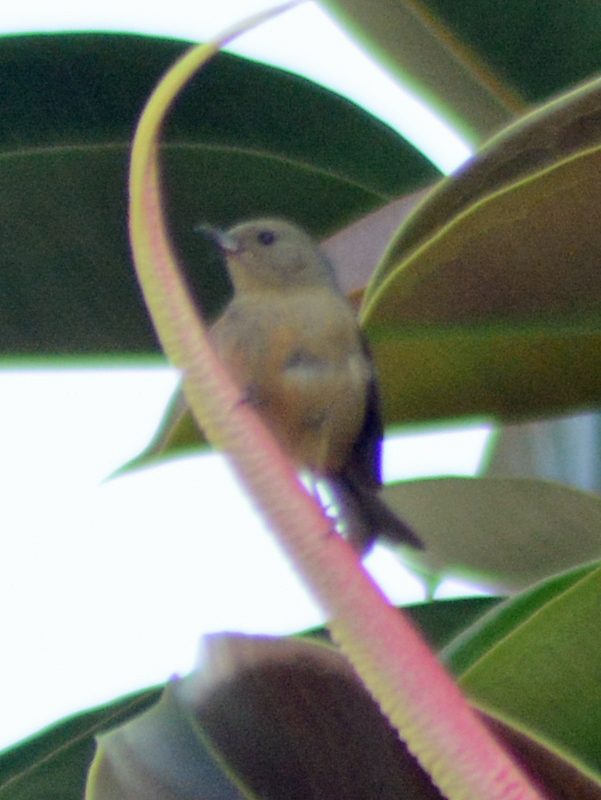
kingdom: Animalia
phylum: Chordata
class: Aves
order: Passeriformes
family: Thraupidae
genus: Diglossa
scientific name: Diglossa baritula
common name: Cinnamon-bellied flowerpiercer
